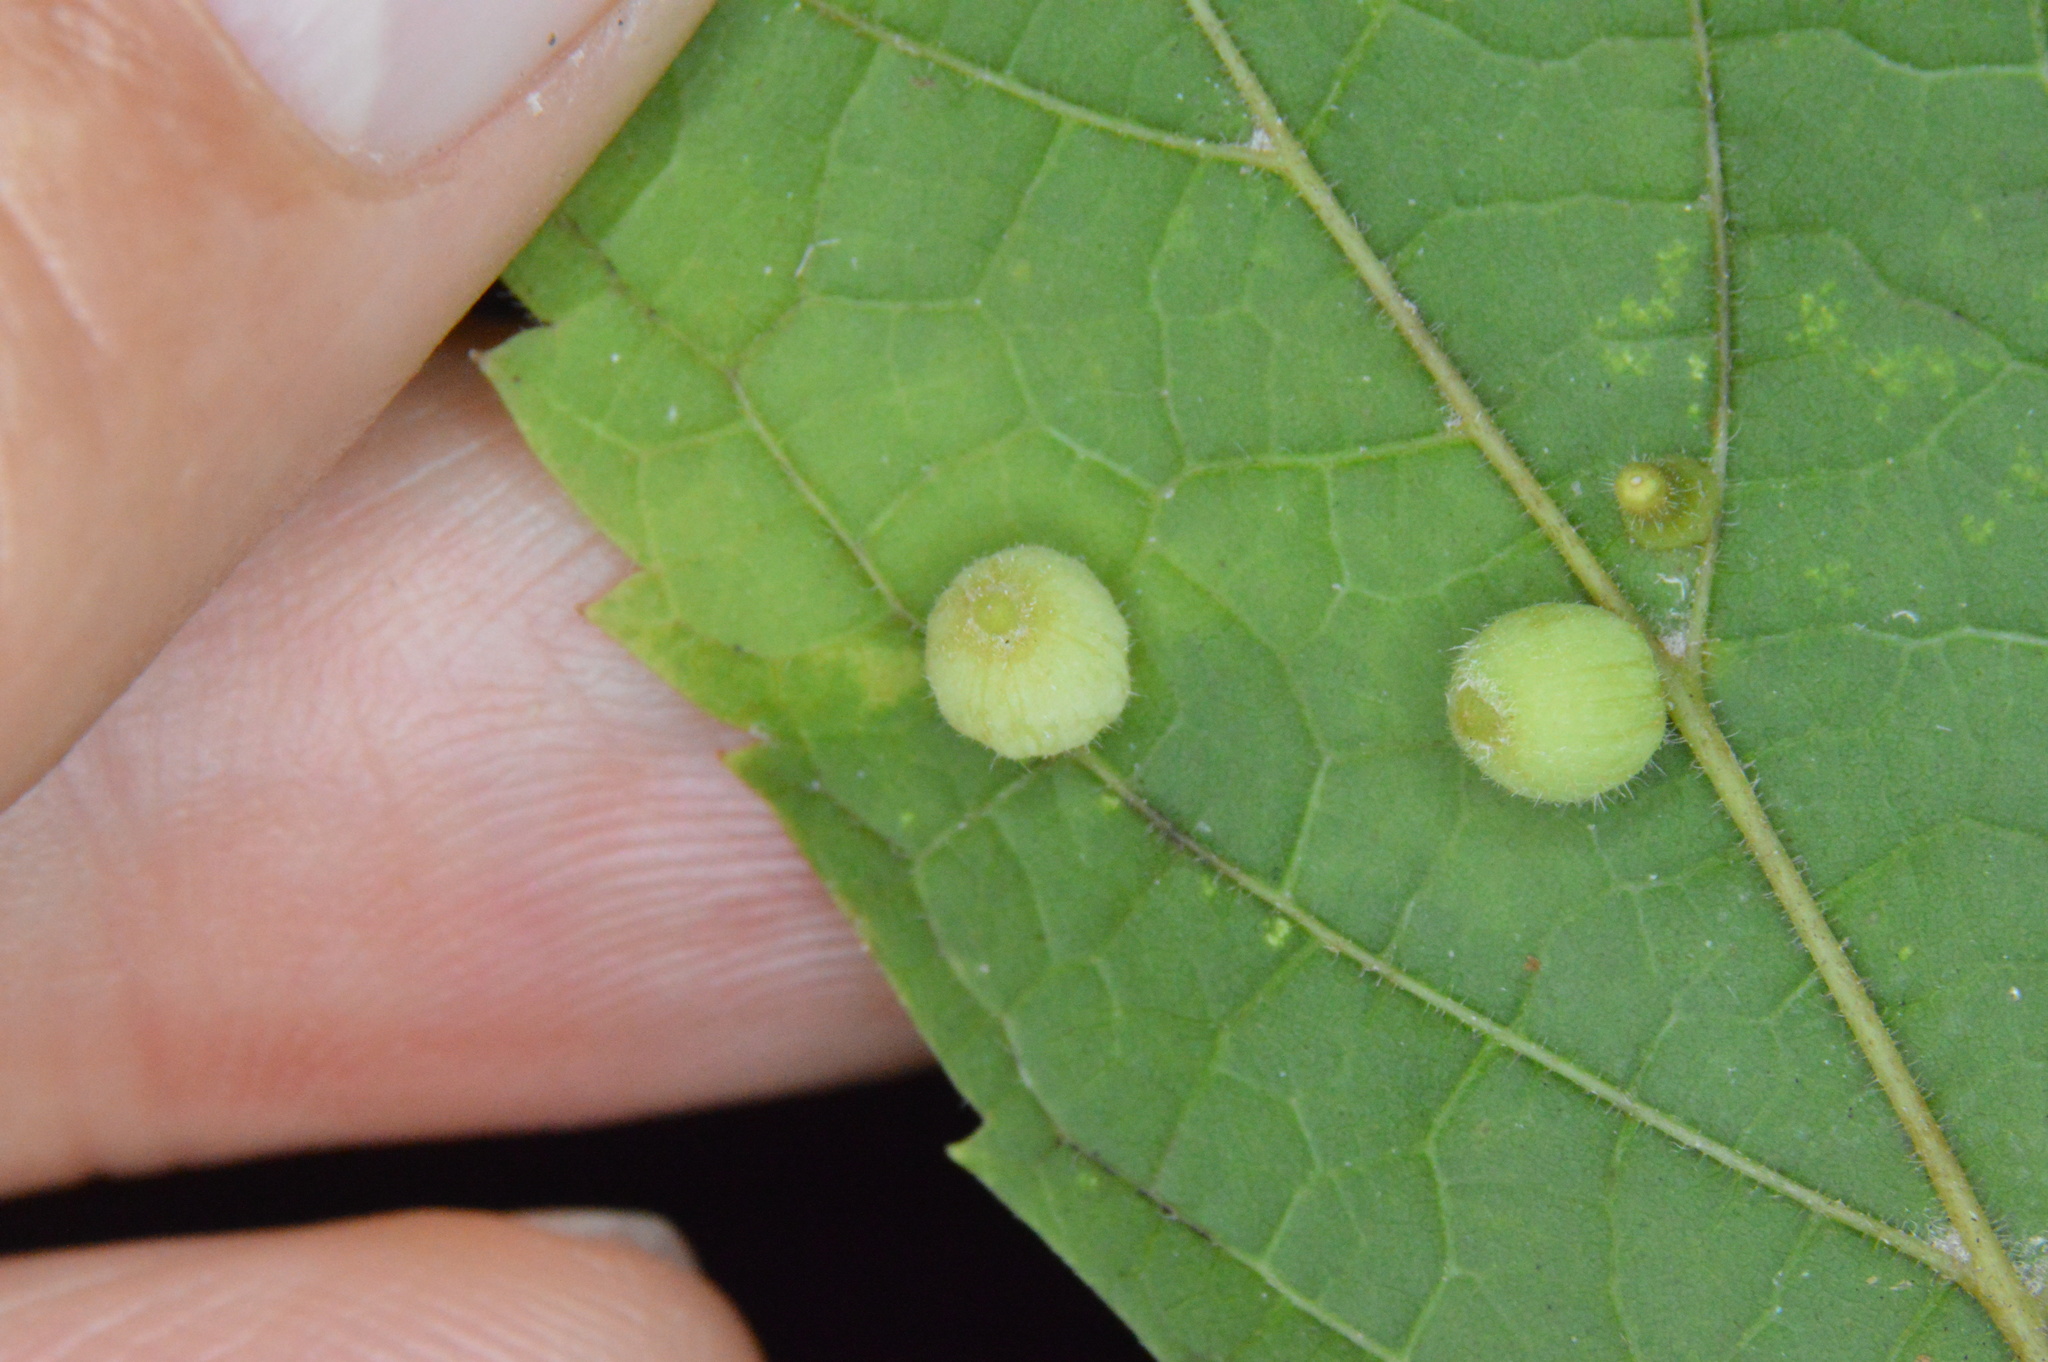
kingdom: Animalia
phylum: Arthropoda
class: Insecta
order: Diptera
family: Cecidomyiidae
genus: Celticecis
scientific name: Celticecis globosa
